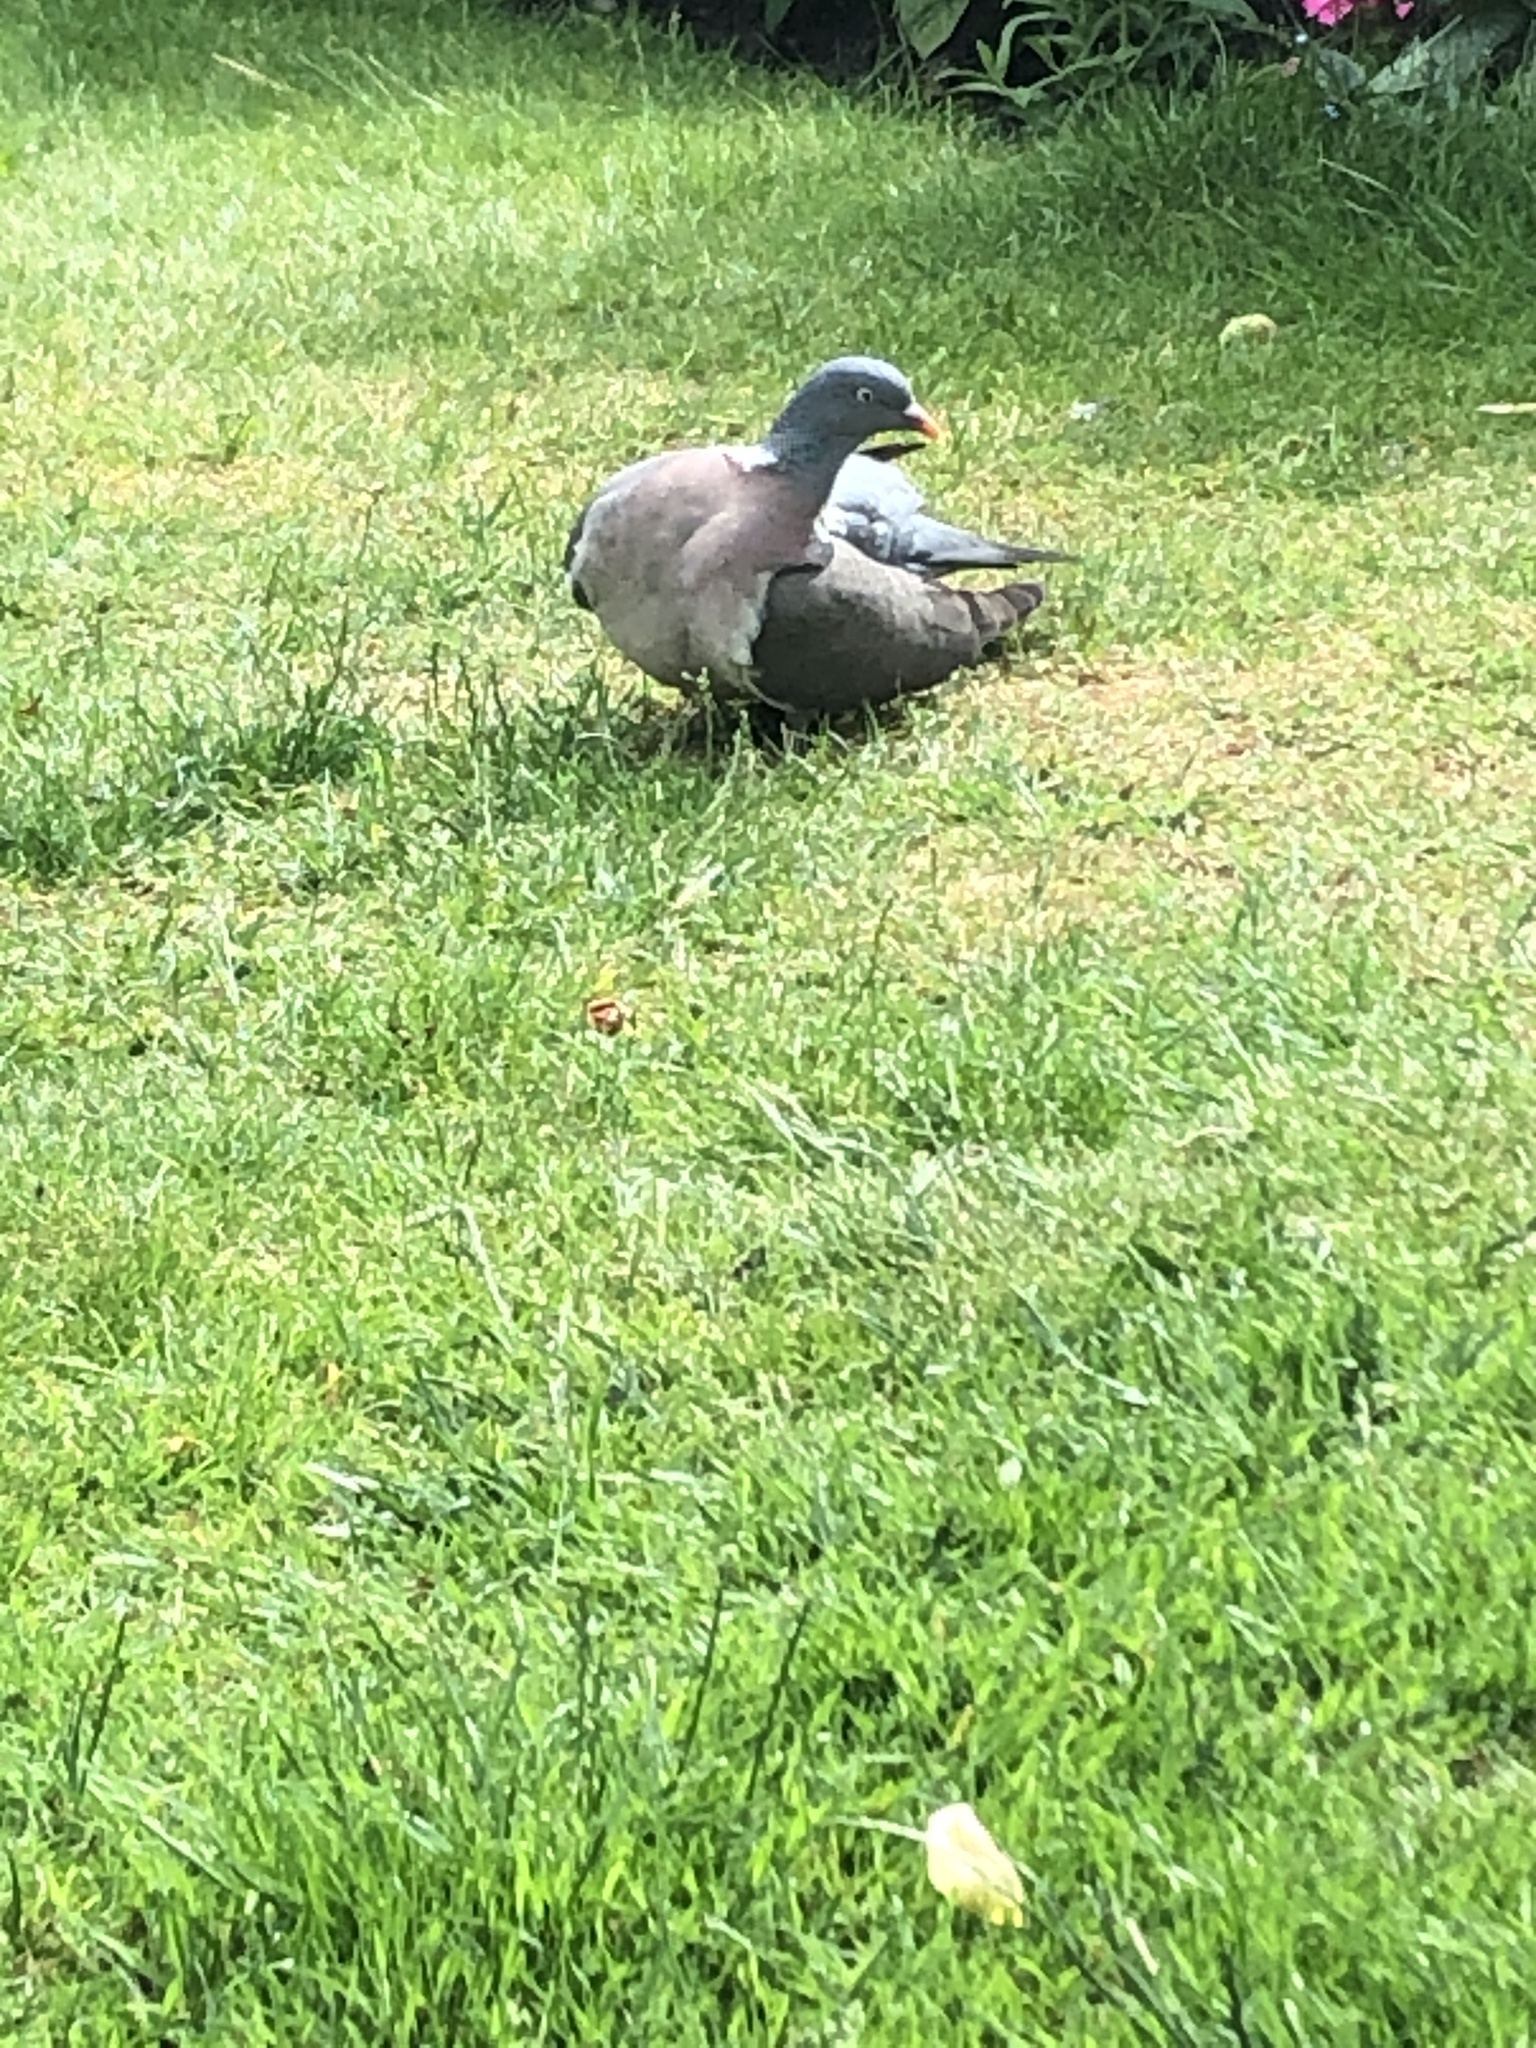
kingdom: Animalia
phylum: Chordata
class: Aves
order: Columbiformes
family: Columbidae
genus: Columba
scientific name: Columba palumbus
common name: Common wood pigeon
